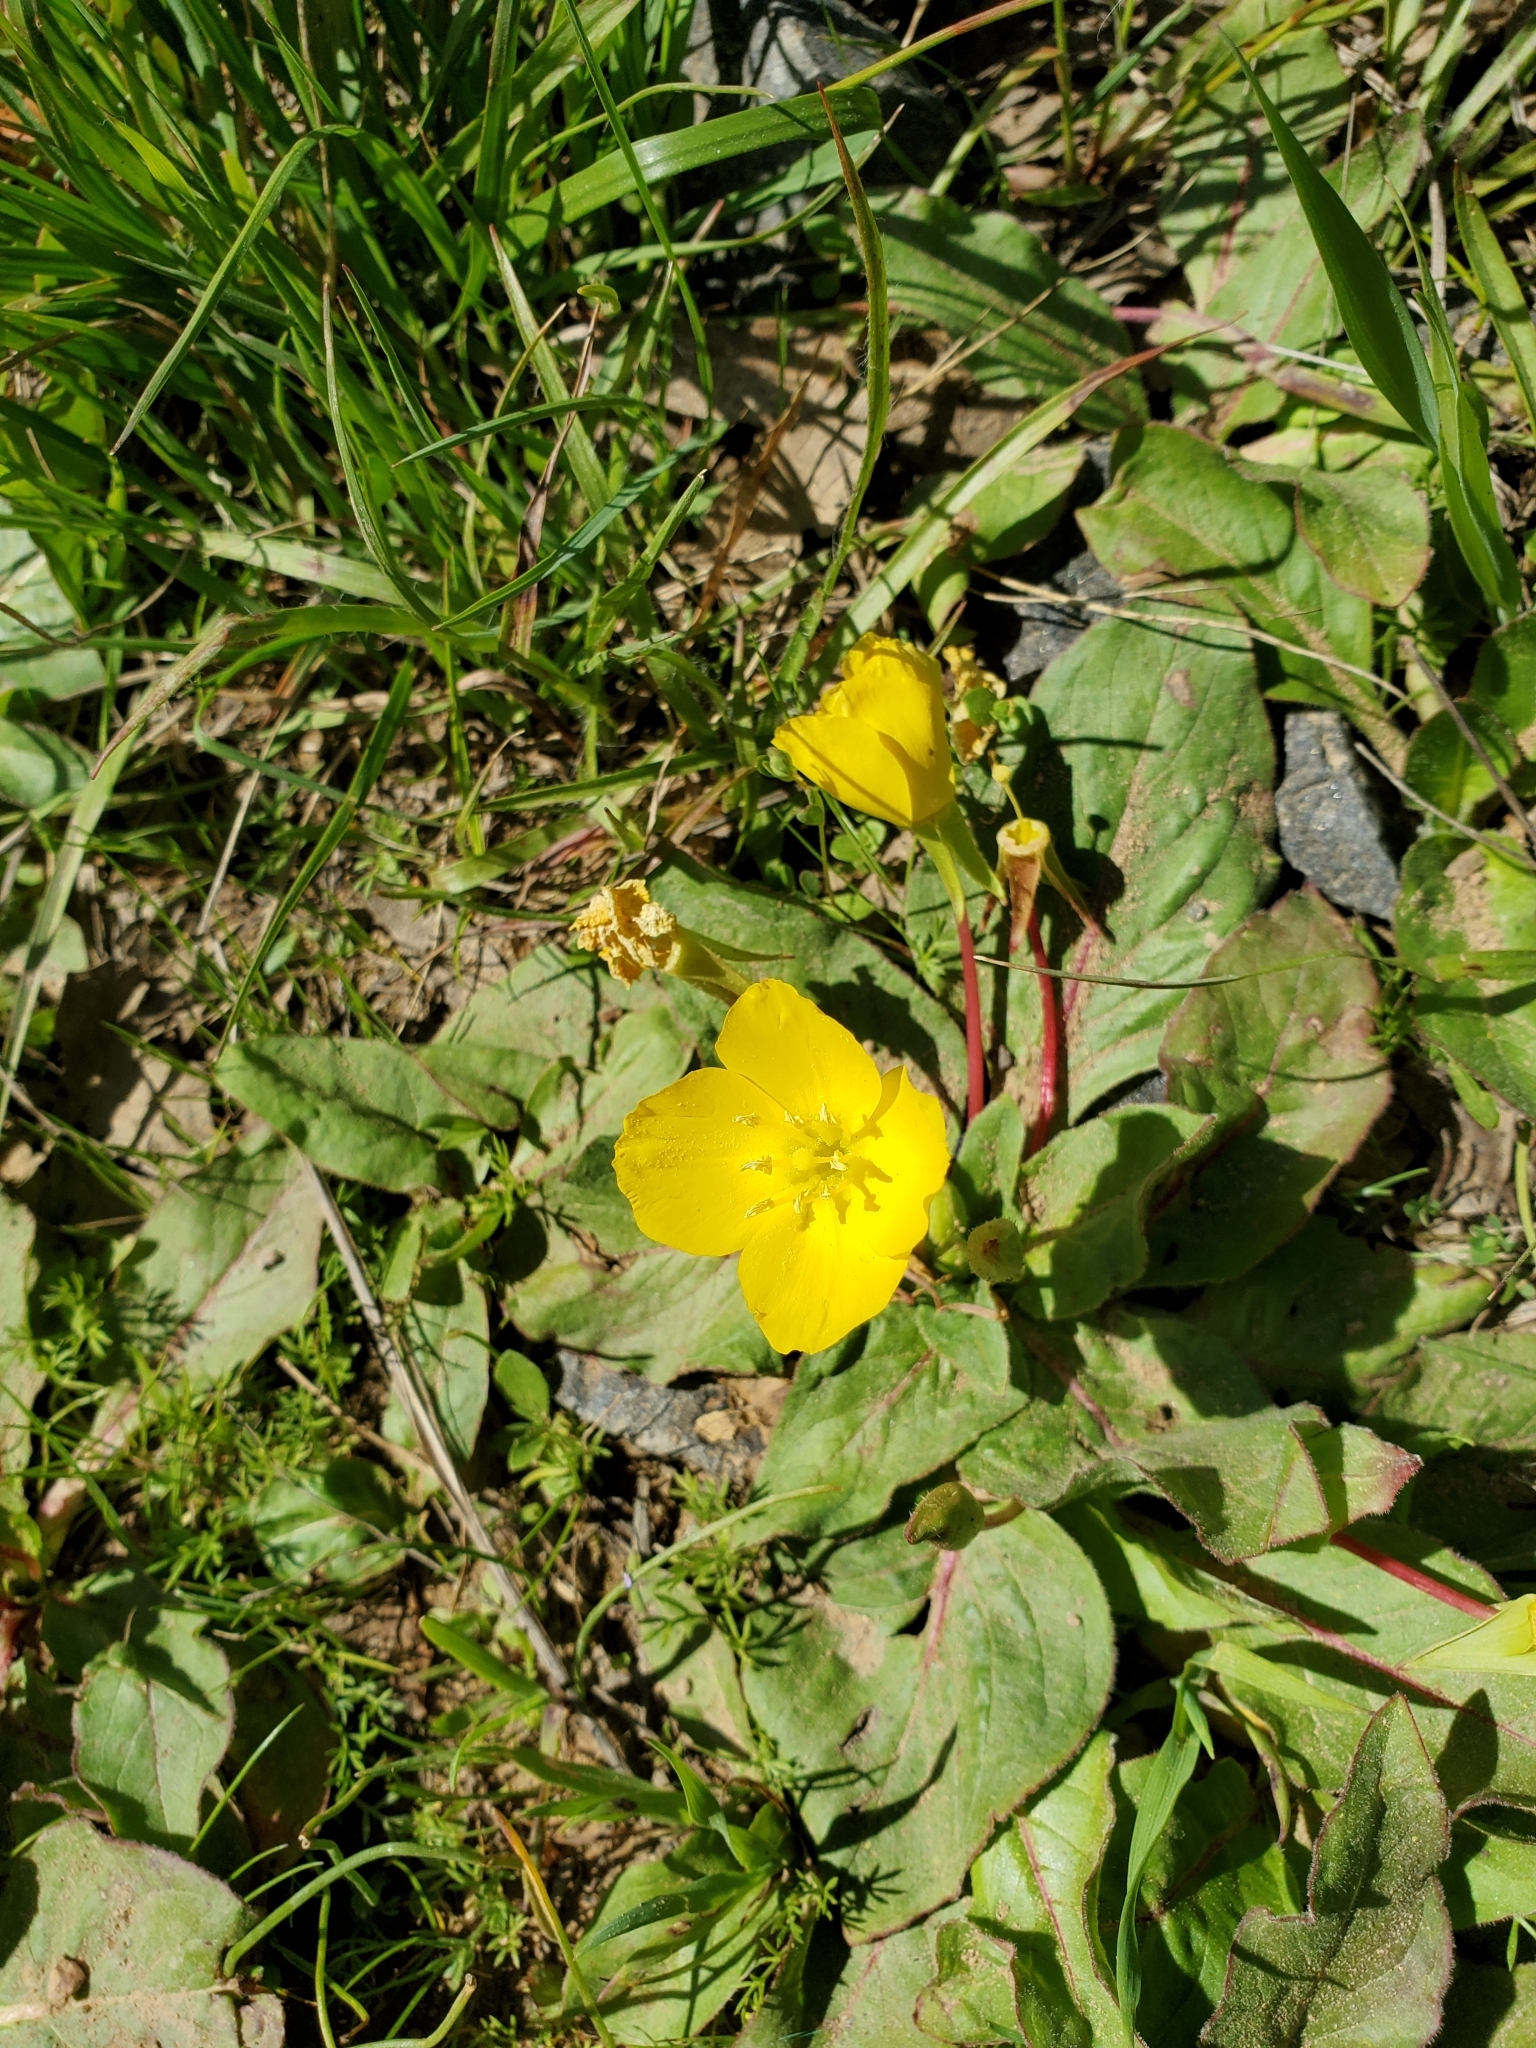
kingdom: Plantae
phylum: Tracheophyta
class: Magnoliopsida
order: Myrtales
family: Onagraceae
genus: Taraxia
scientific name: Taraxia ovata
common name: Goldeneggs
